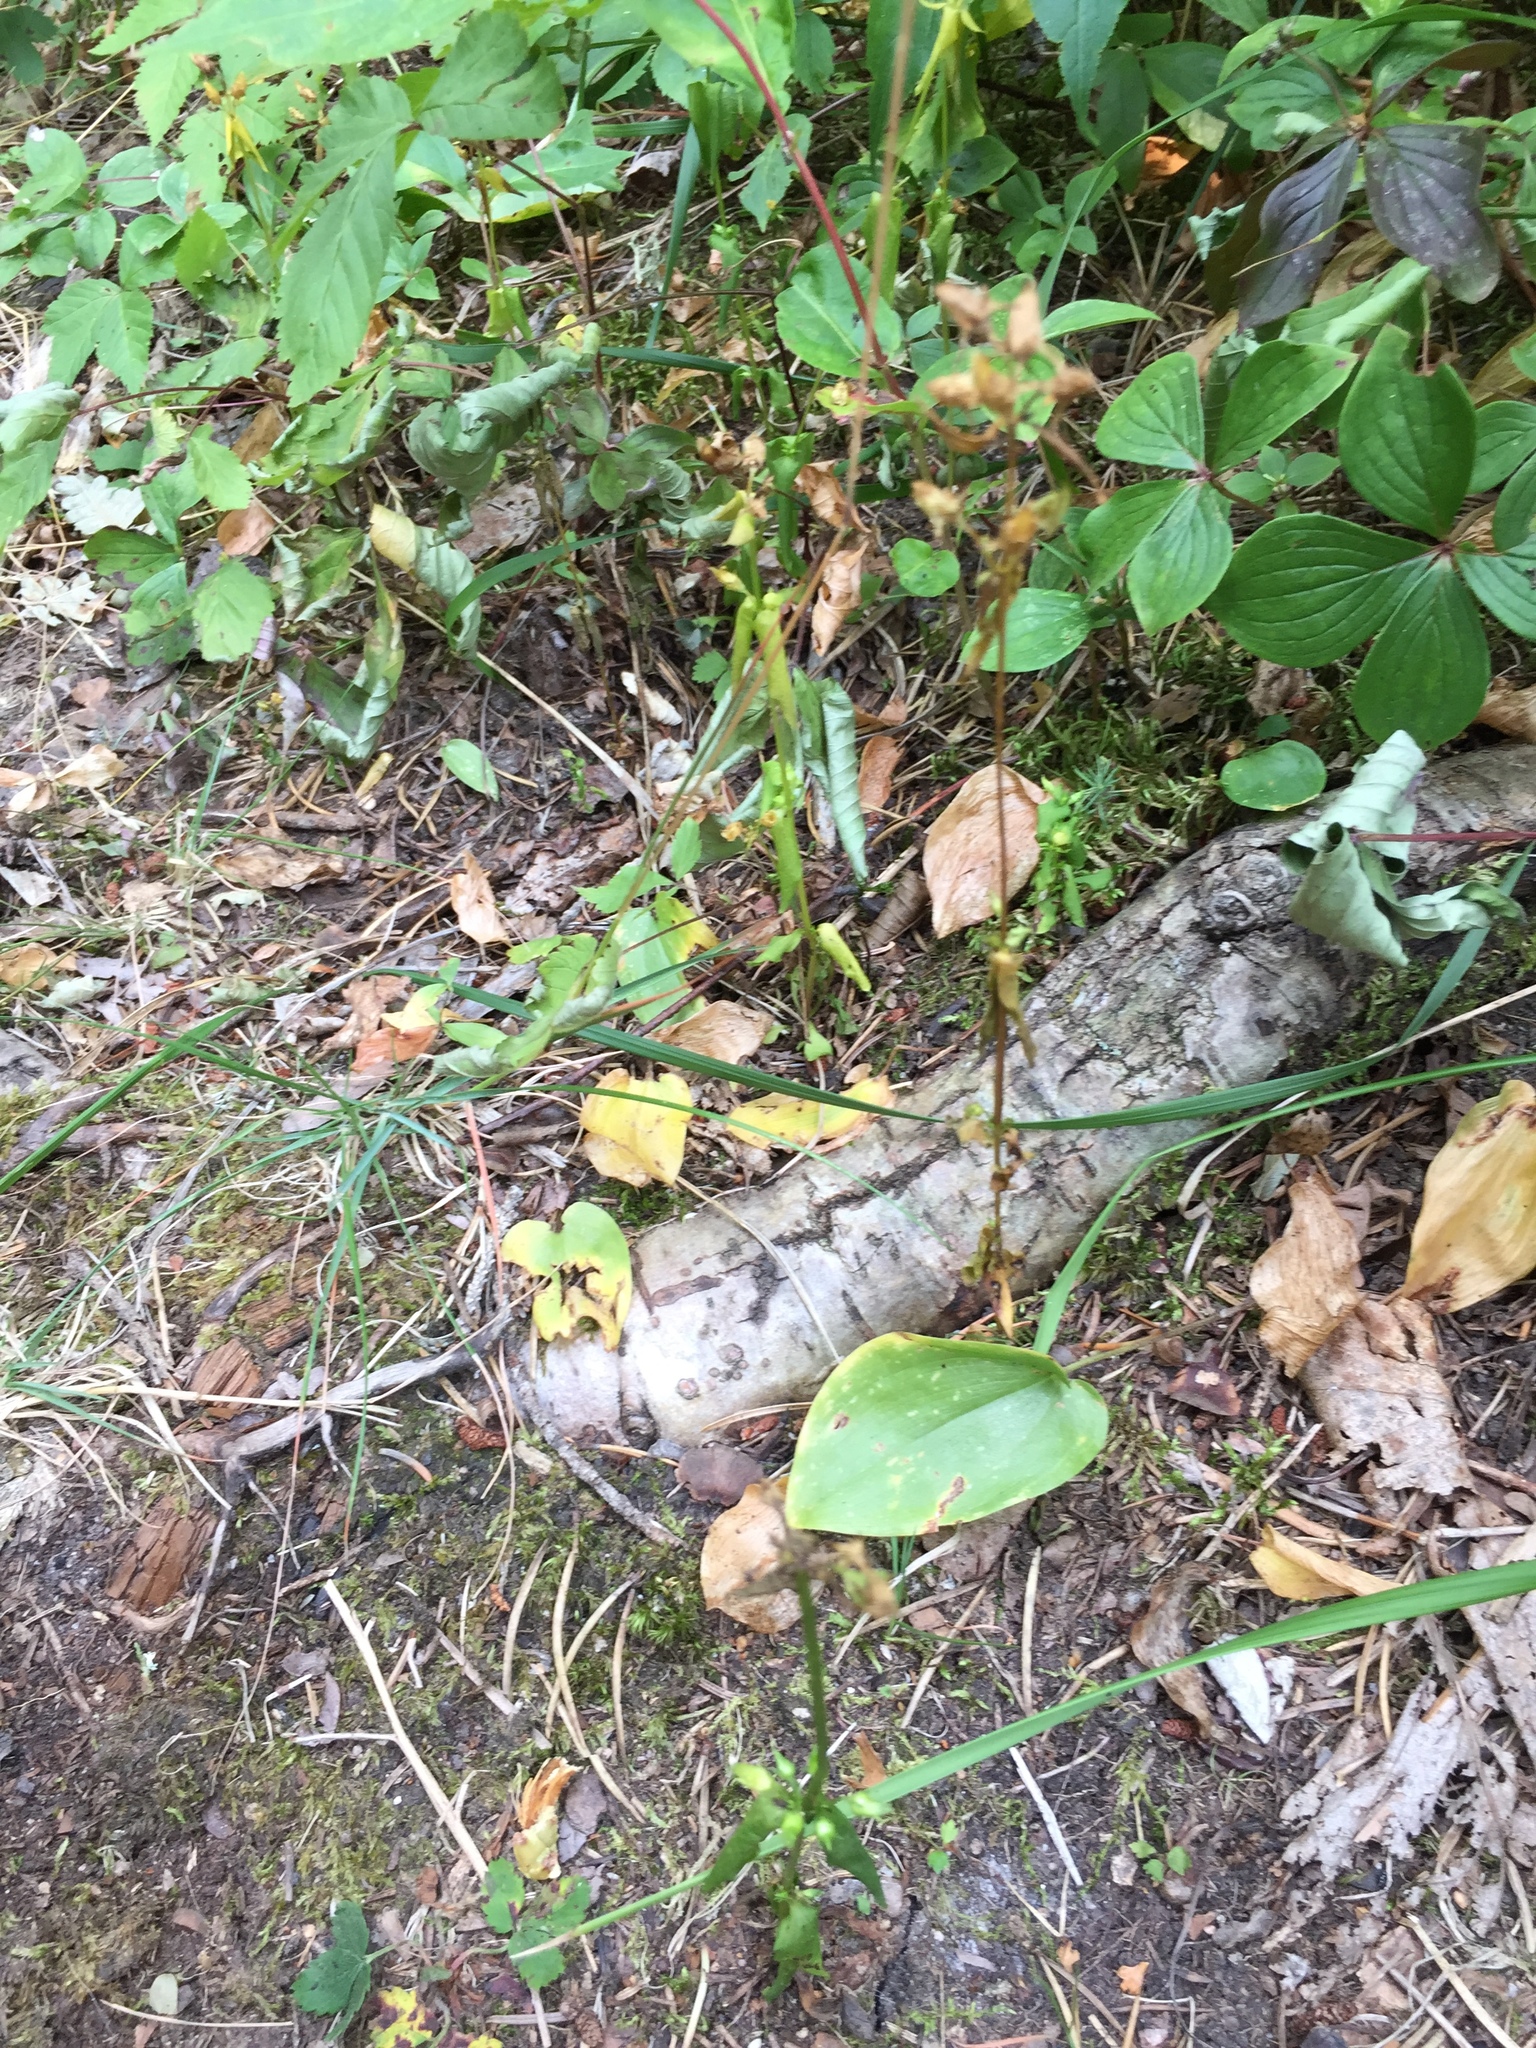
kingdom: Plantae
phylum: Tracheophyta
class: Magnoliopsida
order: Gentianales
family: Gentianaceae
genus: Halenia
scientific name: Halenia deflexa
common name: American spurred gentian
